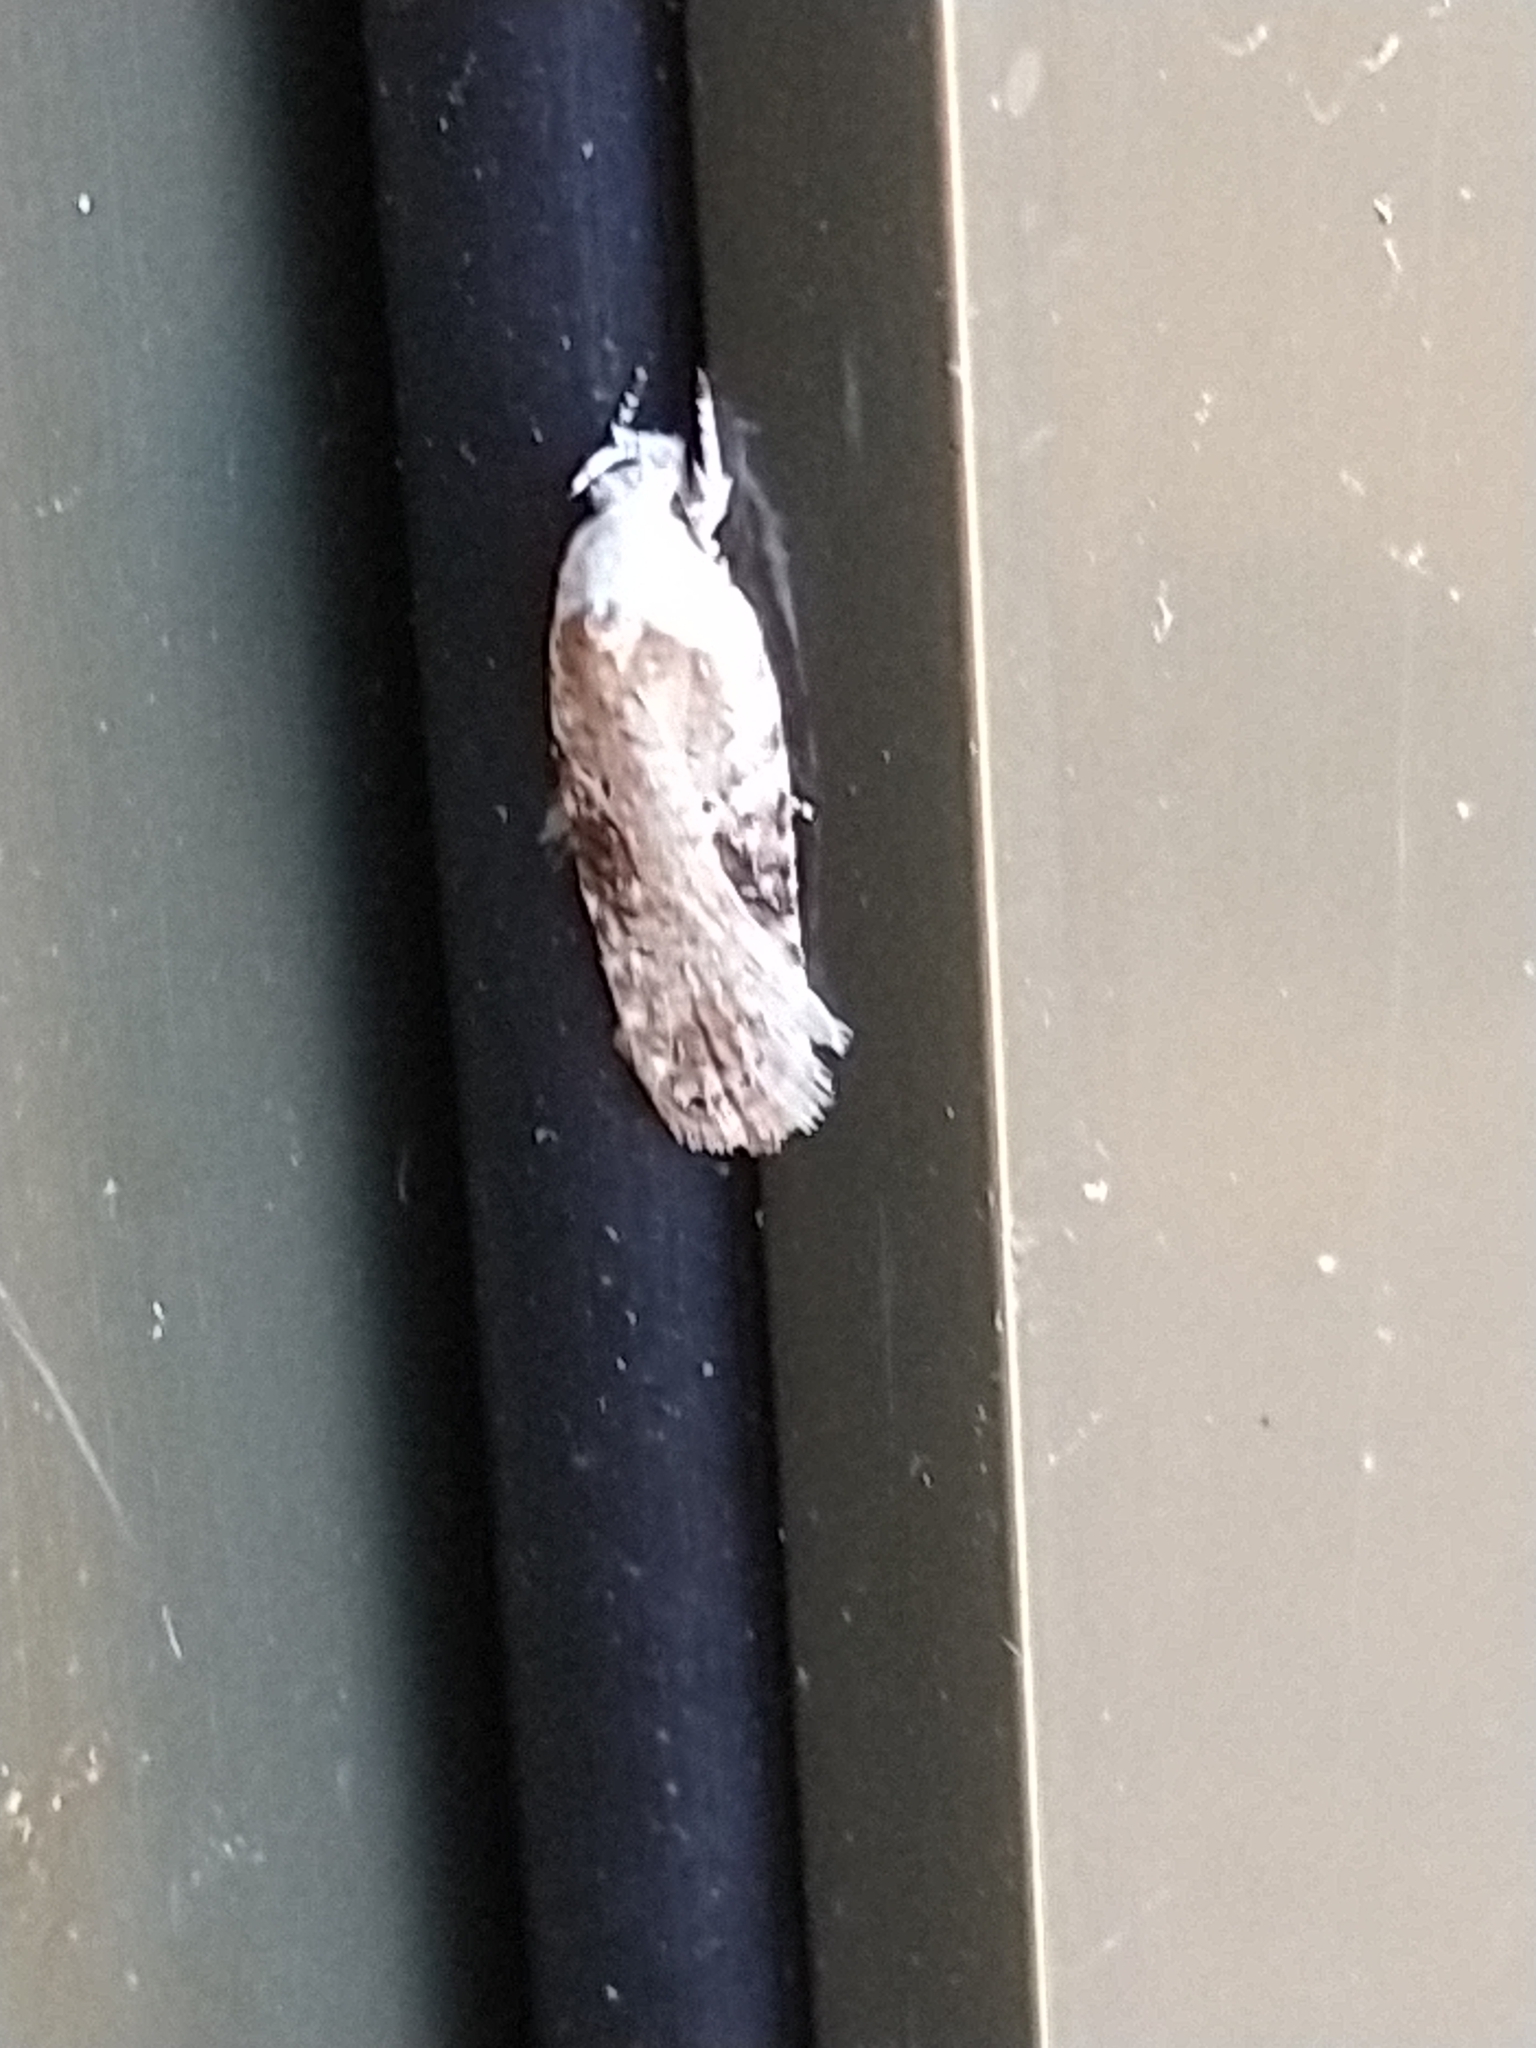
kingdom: Animalia
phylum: Arthropoda
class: Insecta
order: Lepidoptera
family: Depressariidae
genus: Agonopterix
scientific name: Agonopterix alstroemeriana
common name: Moth
